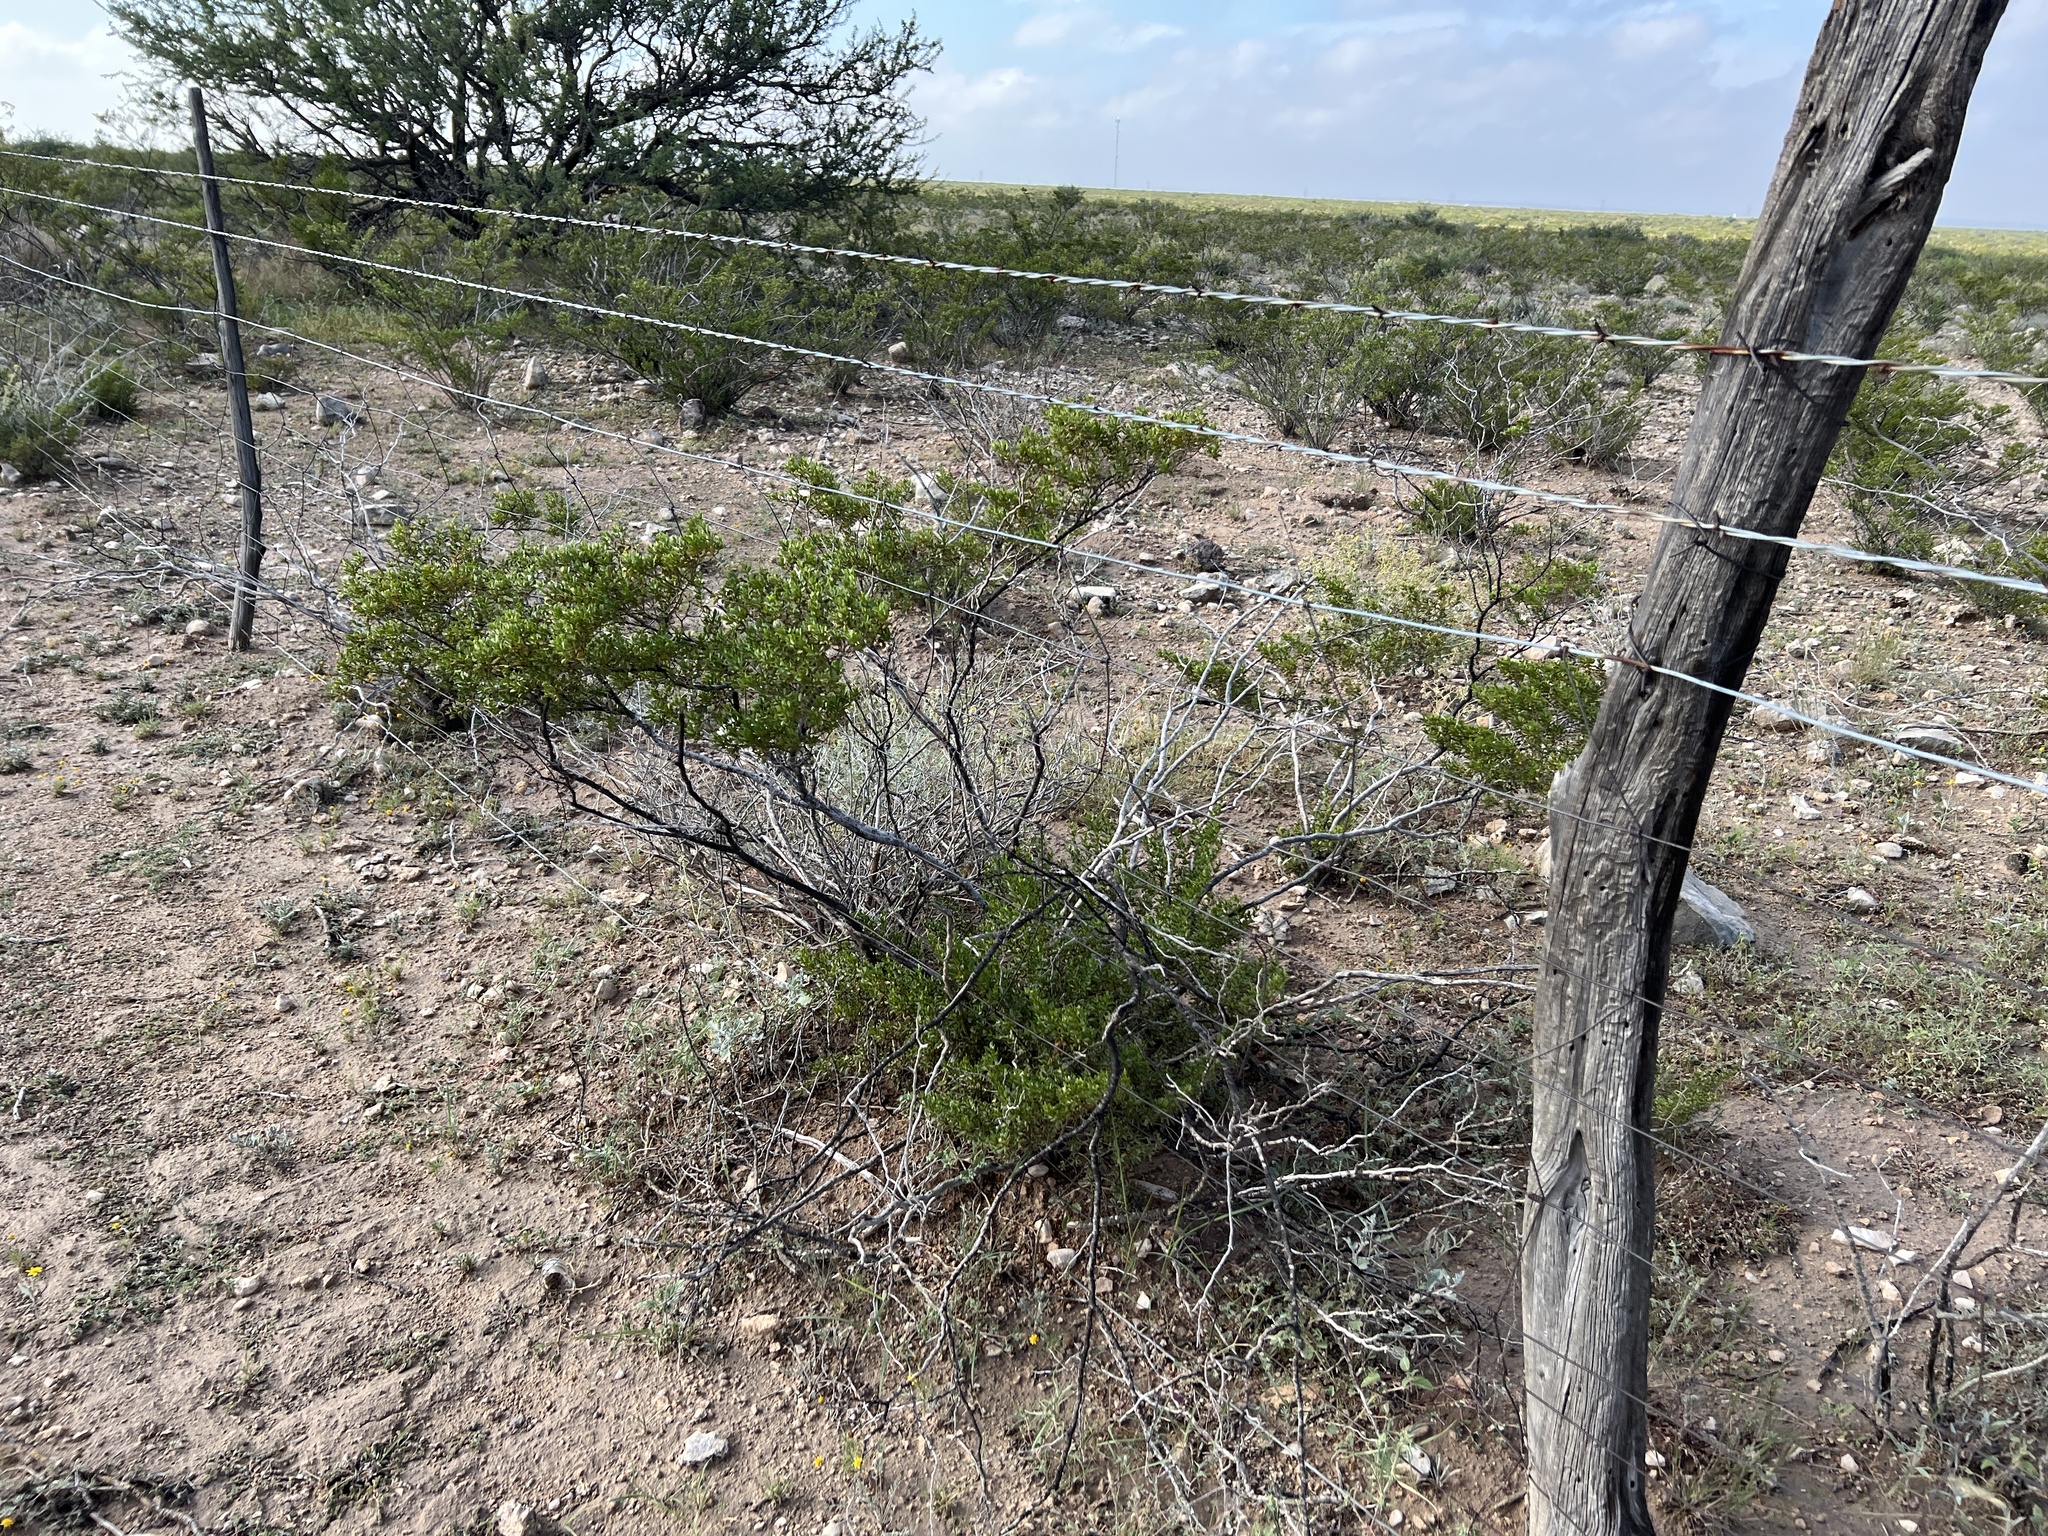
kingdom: Plantae
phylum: Tracheophyta
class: Magnoliopsida
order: Zygophyllales
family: Zygophyllaceae
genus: Larrea
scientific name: Larrea tridentata
